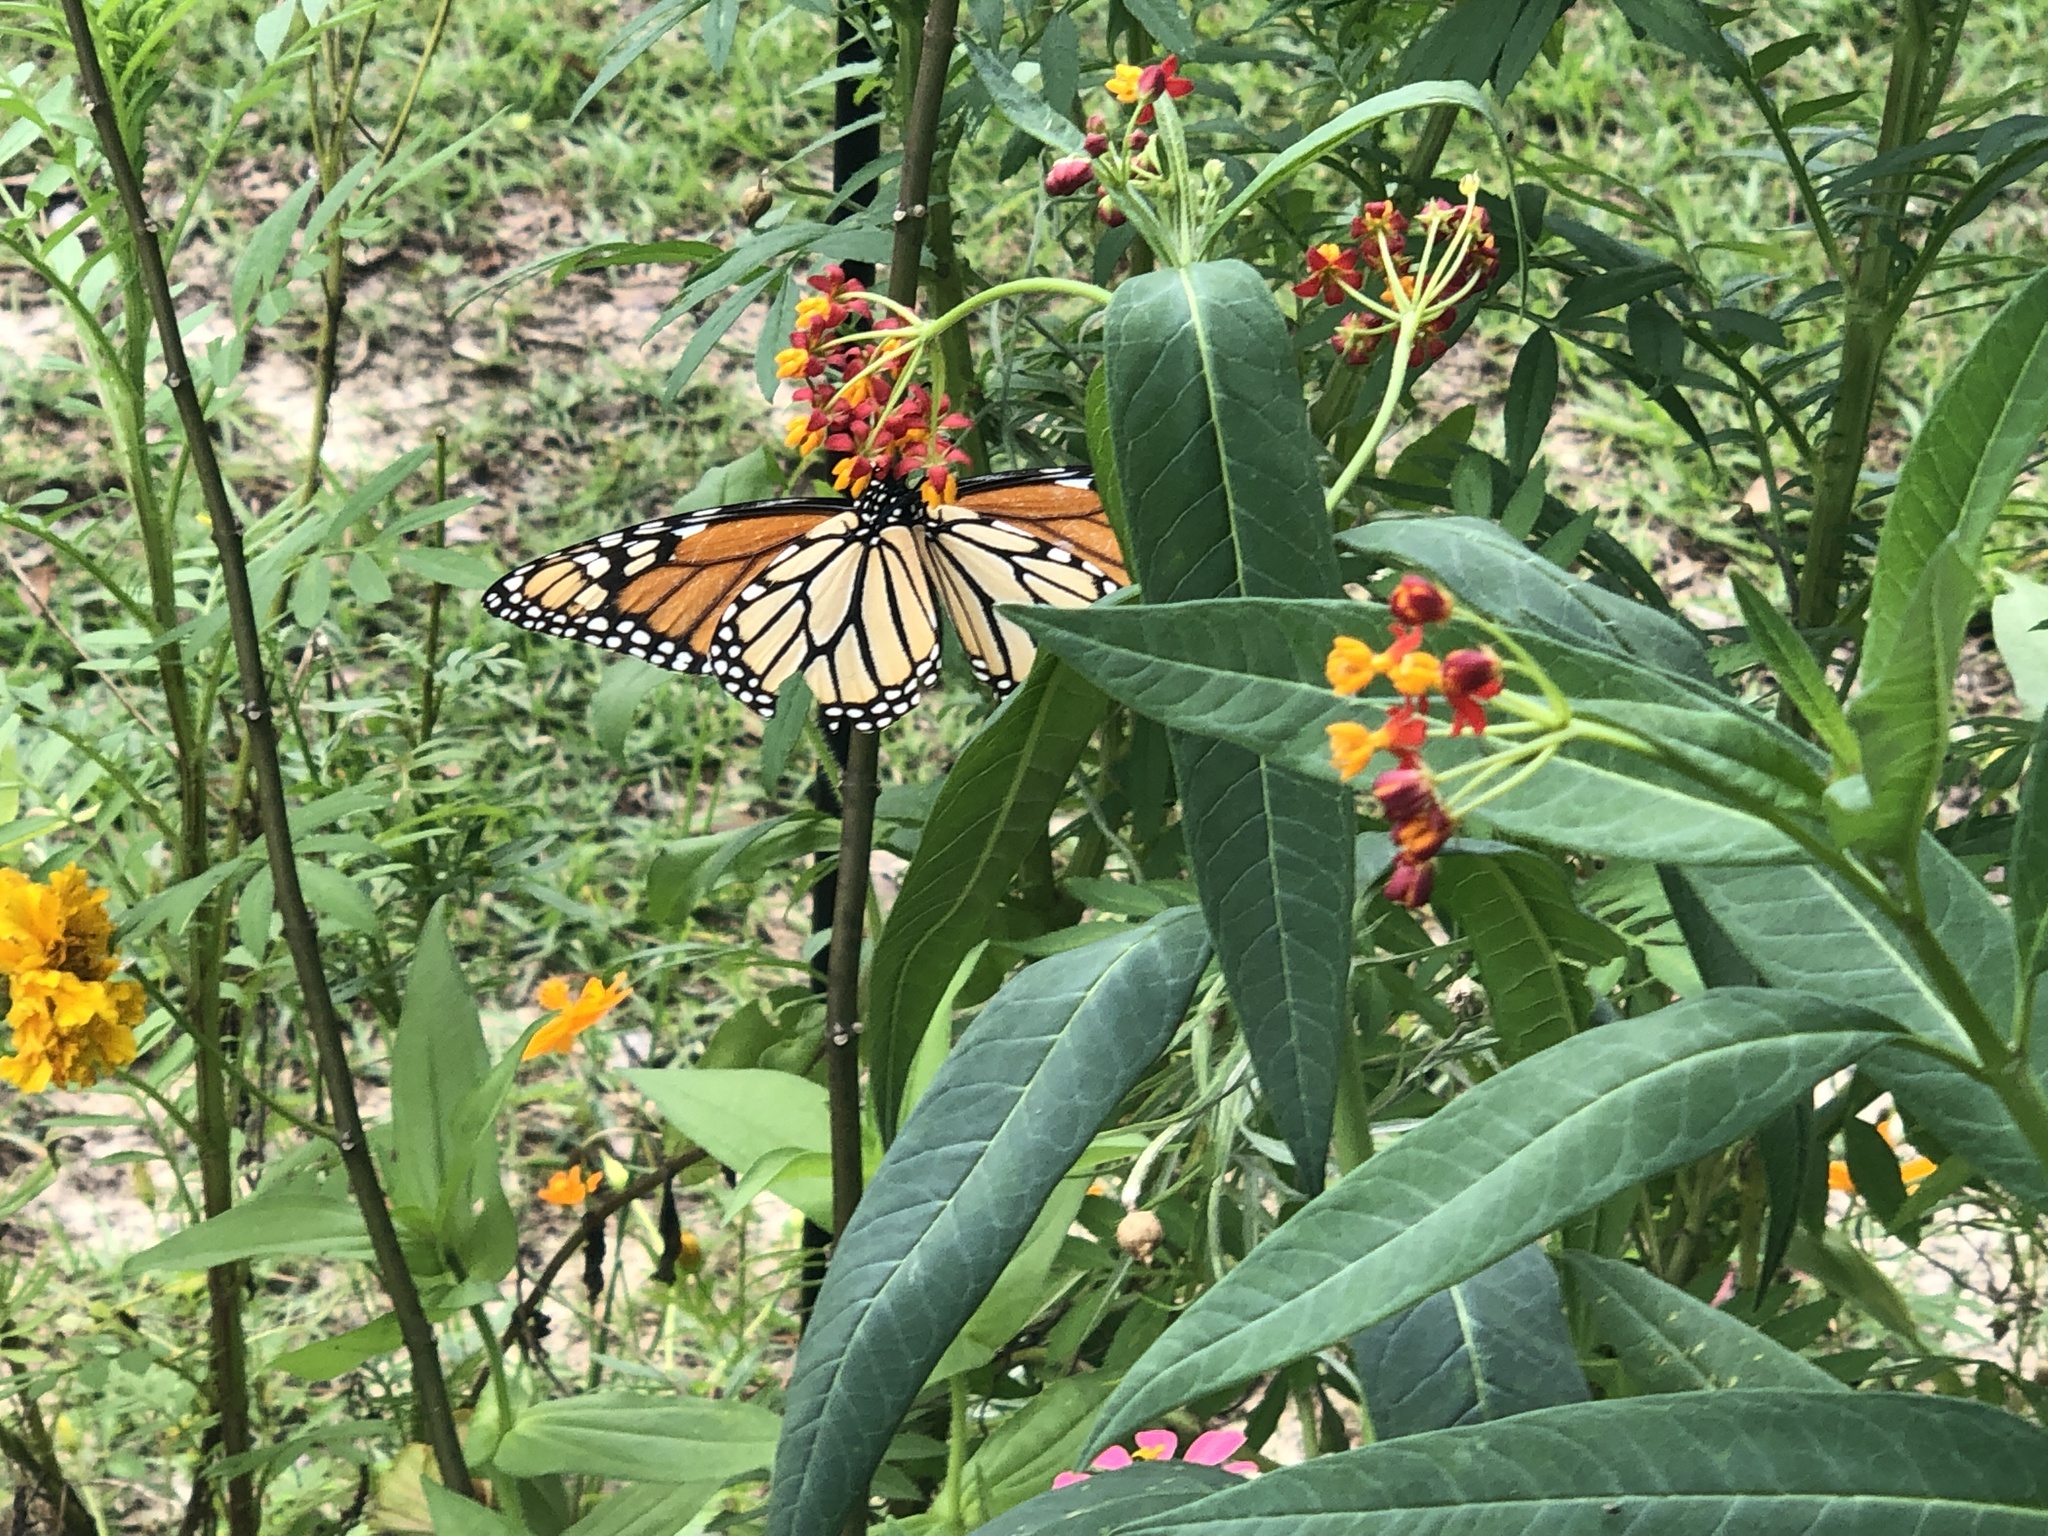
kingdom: Animalia
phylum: Arthropoda
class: Insecta
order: Lepidoptera
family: Nymphalidae
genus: Danaus
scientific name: Danaus plexippus
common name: Monarch
